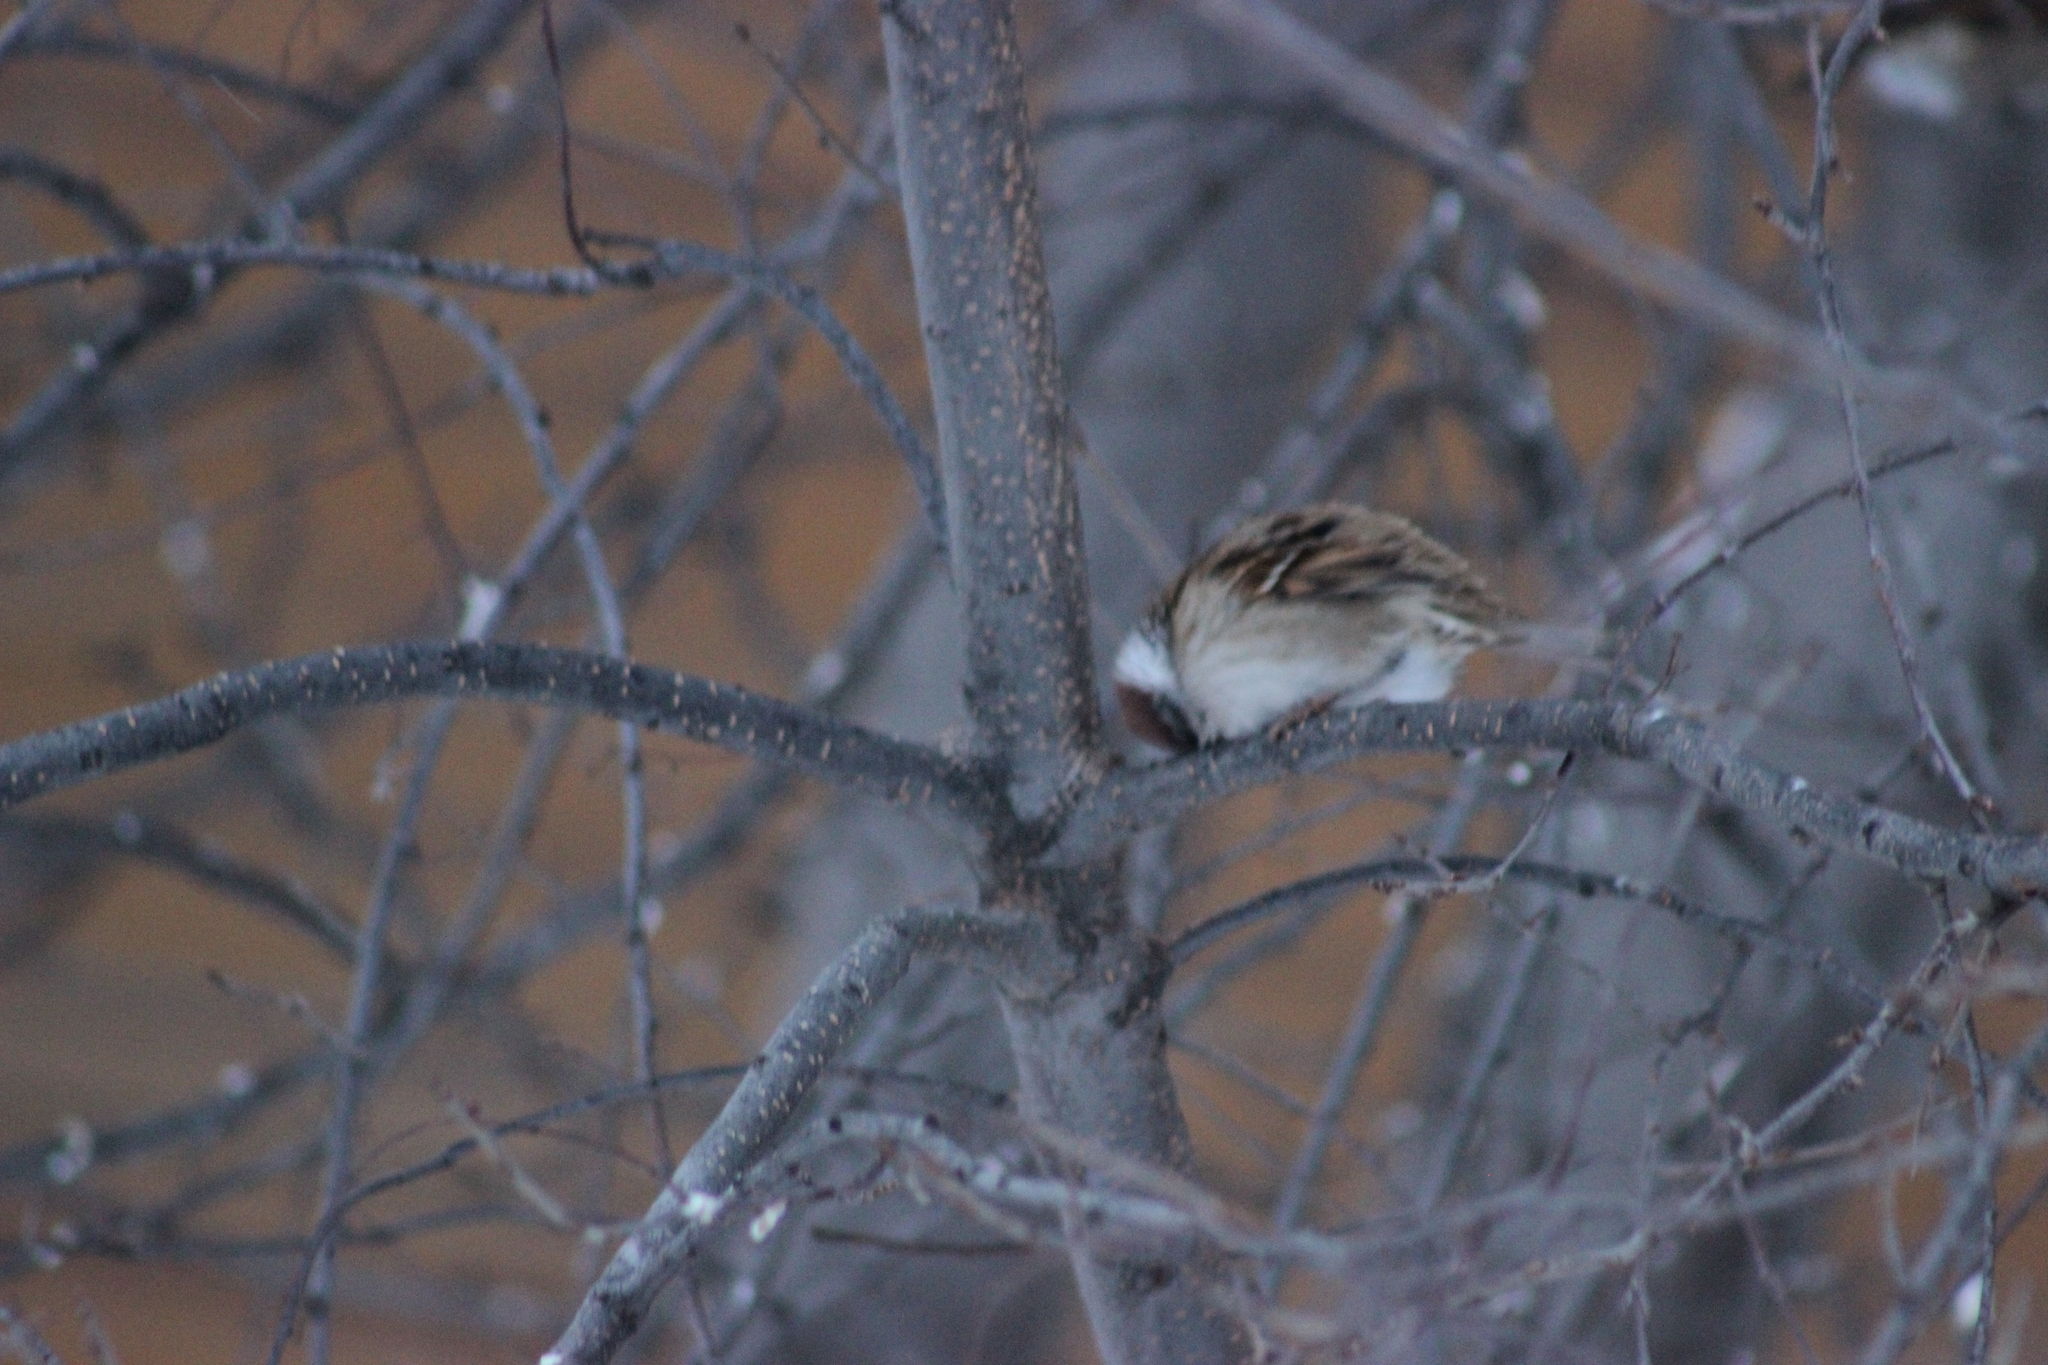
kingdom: Animalia
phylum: Chordata
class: Aves
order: Passeriformes
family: Passeridae
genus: Passer
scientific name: Passer montanus
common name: Eurasian tree sparrow
